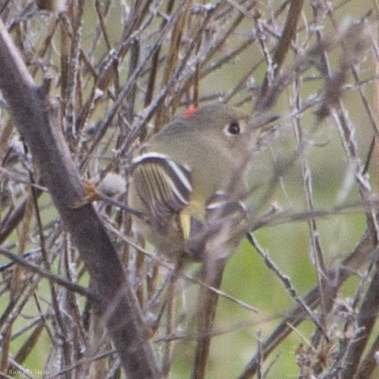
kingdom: Animalia
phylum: Chordata
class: Aves
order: Passeriformes
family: Regulidae
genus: Regulus
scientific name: Regulus calendula
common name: Ruby-crowned kinglet
